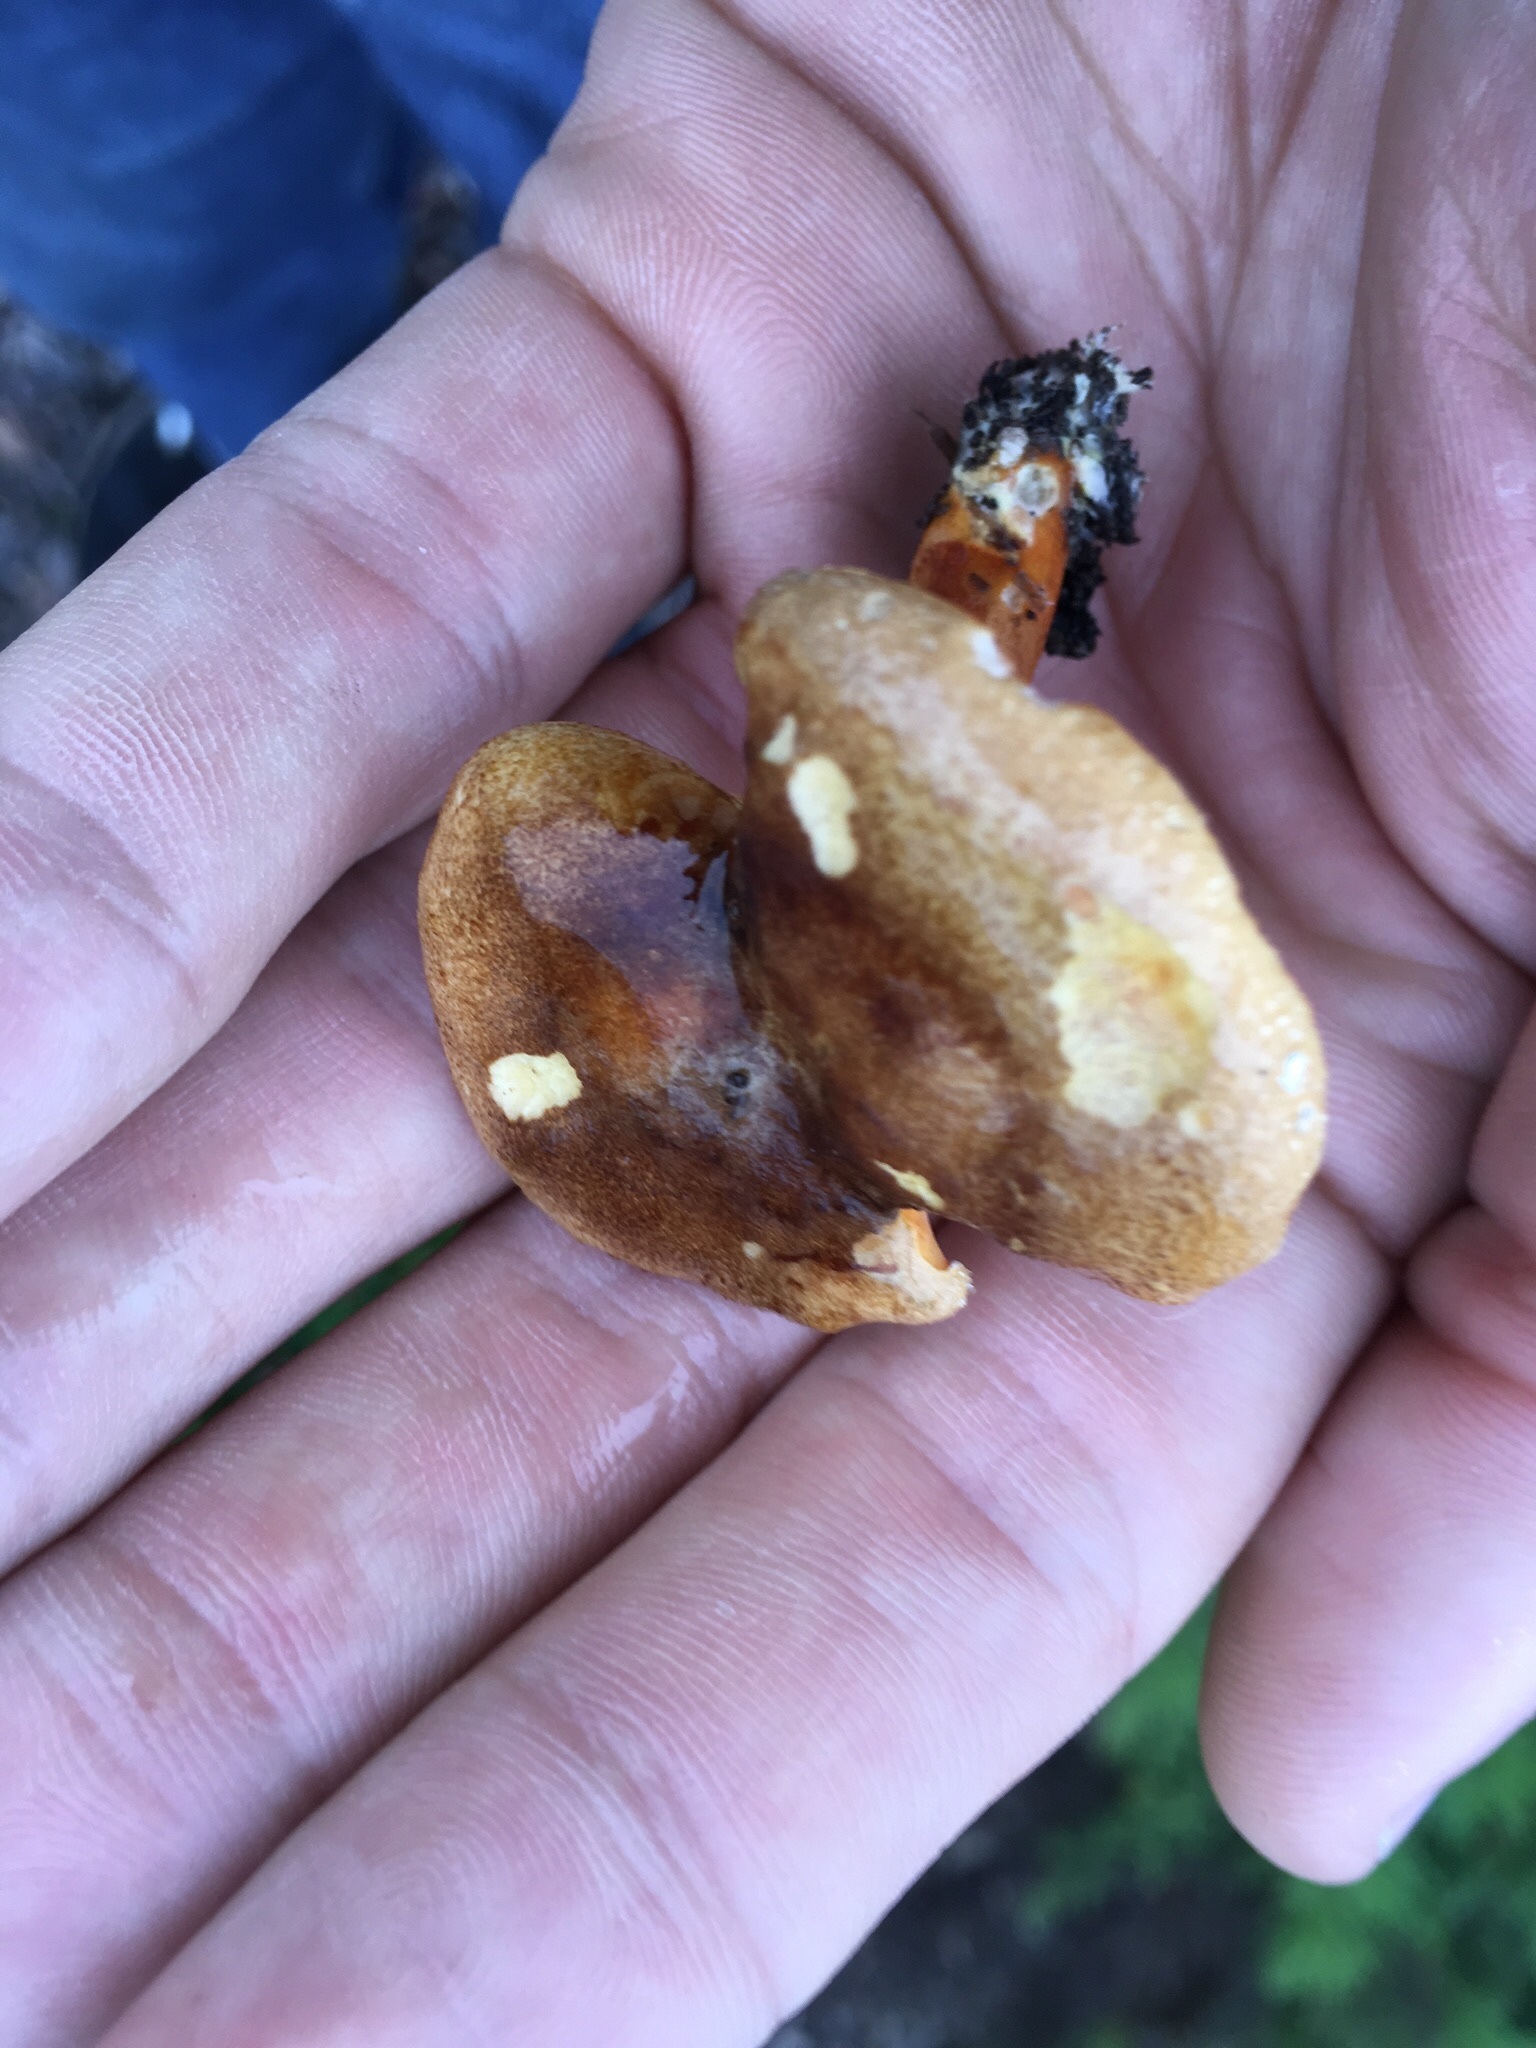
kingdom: Fungi
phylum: Basidiomycota
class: Agaricomycetes
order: Boletales
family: Hygrophoropsidaceae
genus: Hygrophoropsis
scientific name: Hygrophoropsis aurantiaca
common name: False chanterelle
